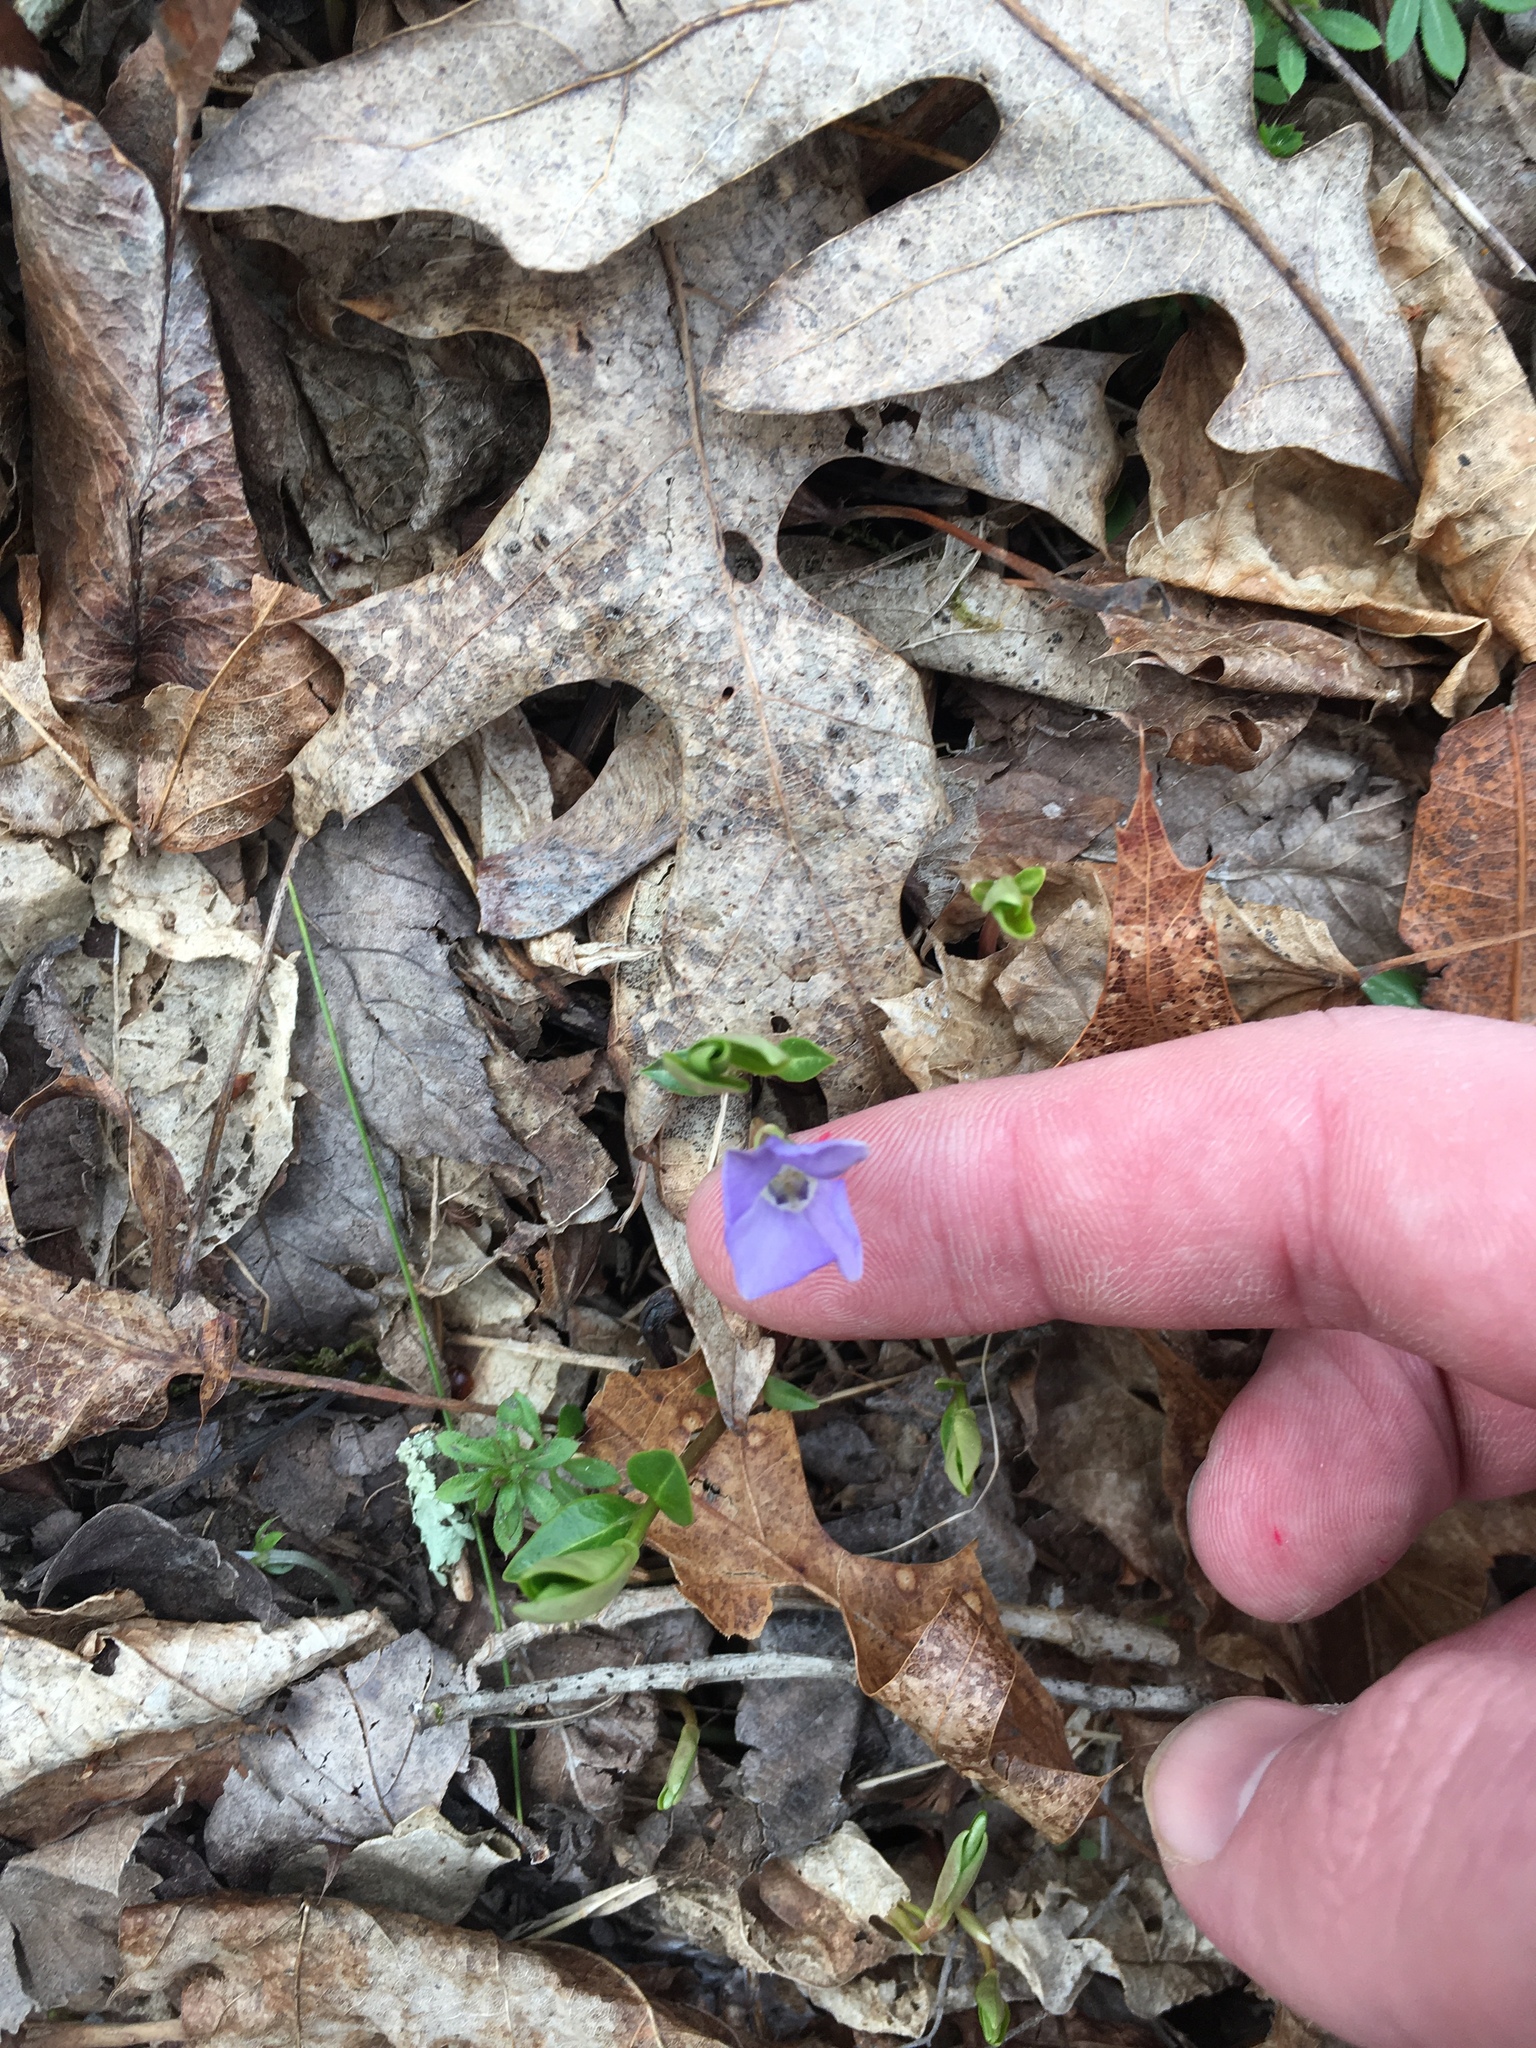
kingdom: Plantae
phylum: Tracheophyta
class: Magnoliopsida
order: Gentianales
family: Apocynaceae
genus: Vinca
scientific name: Vinca minor
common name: Lesser periwinkle
